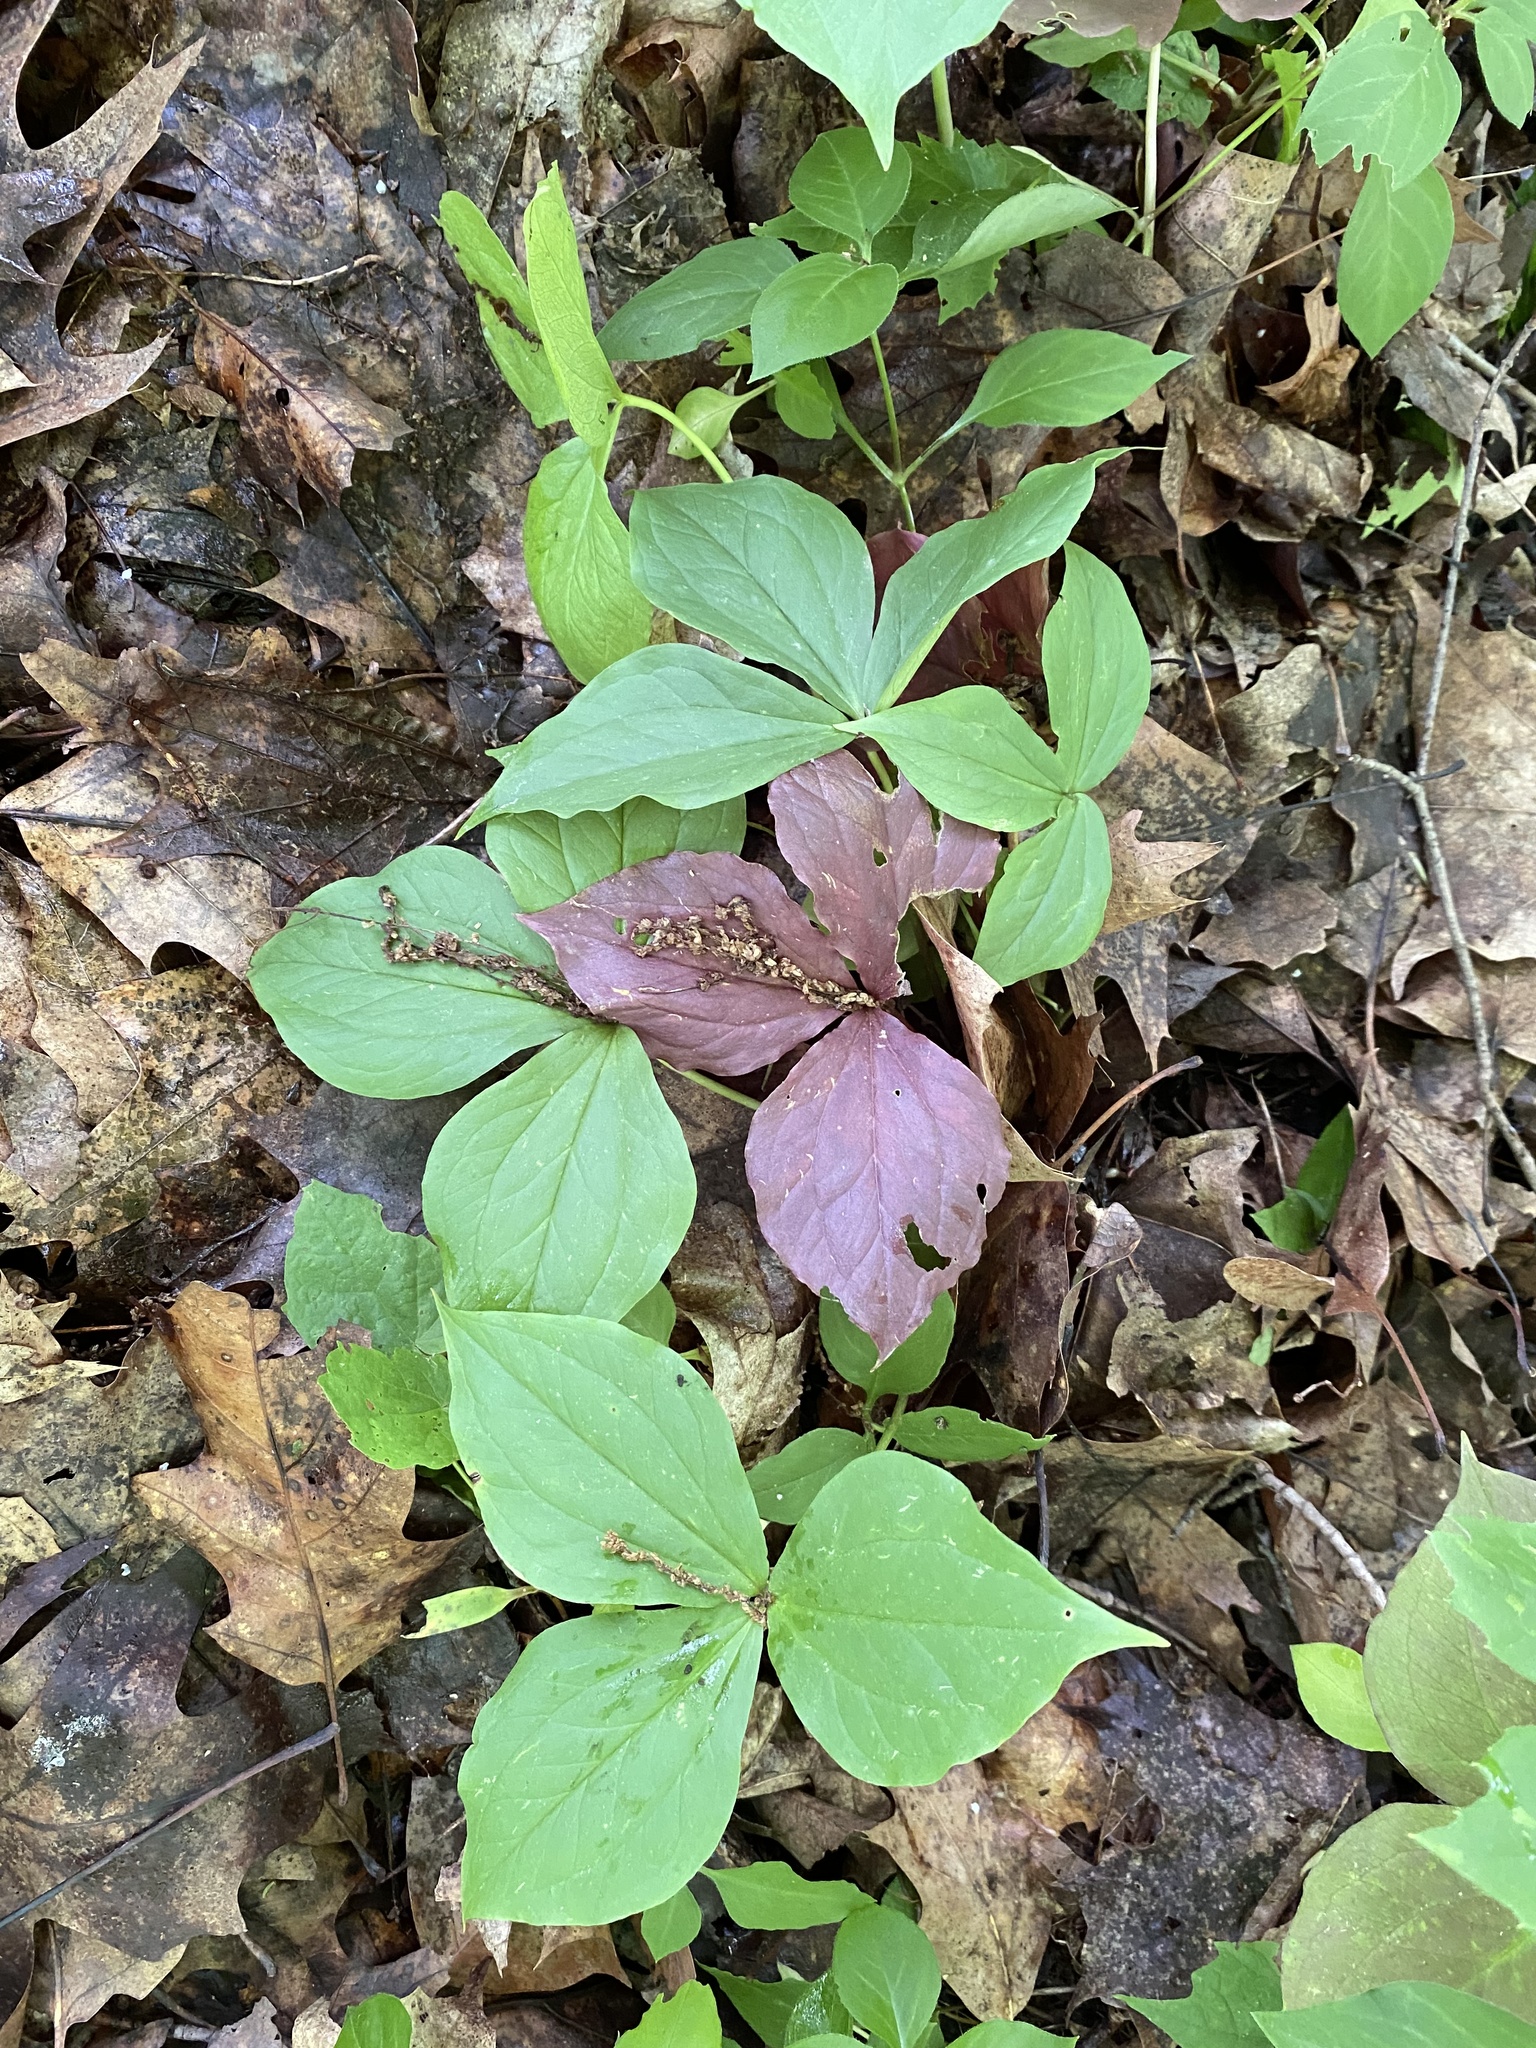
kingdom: Plantae
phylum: Tracheophyta
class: Liliopsida
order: Liliales
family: Melanthiaceae
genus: Trillium
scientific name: Trillium grandiflorum
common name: Great white trillium
